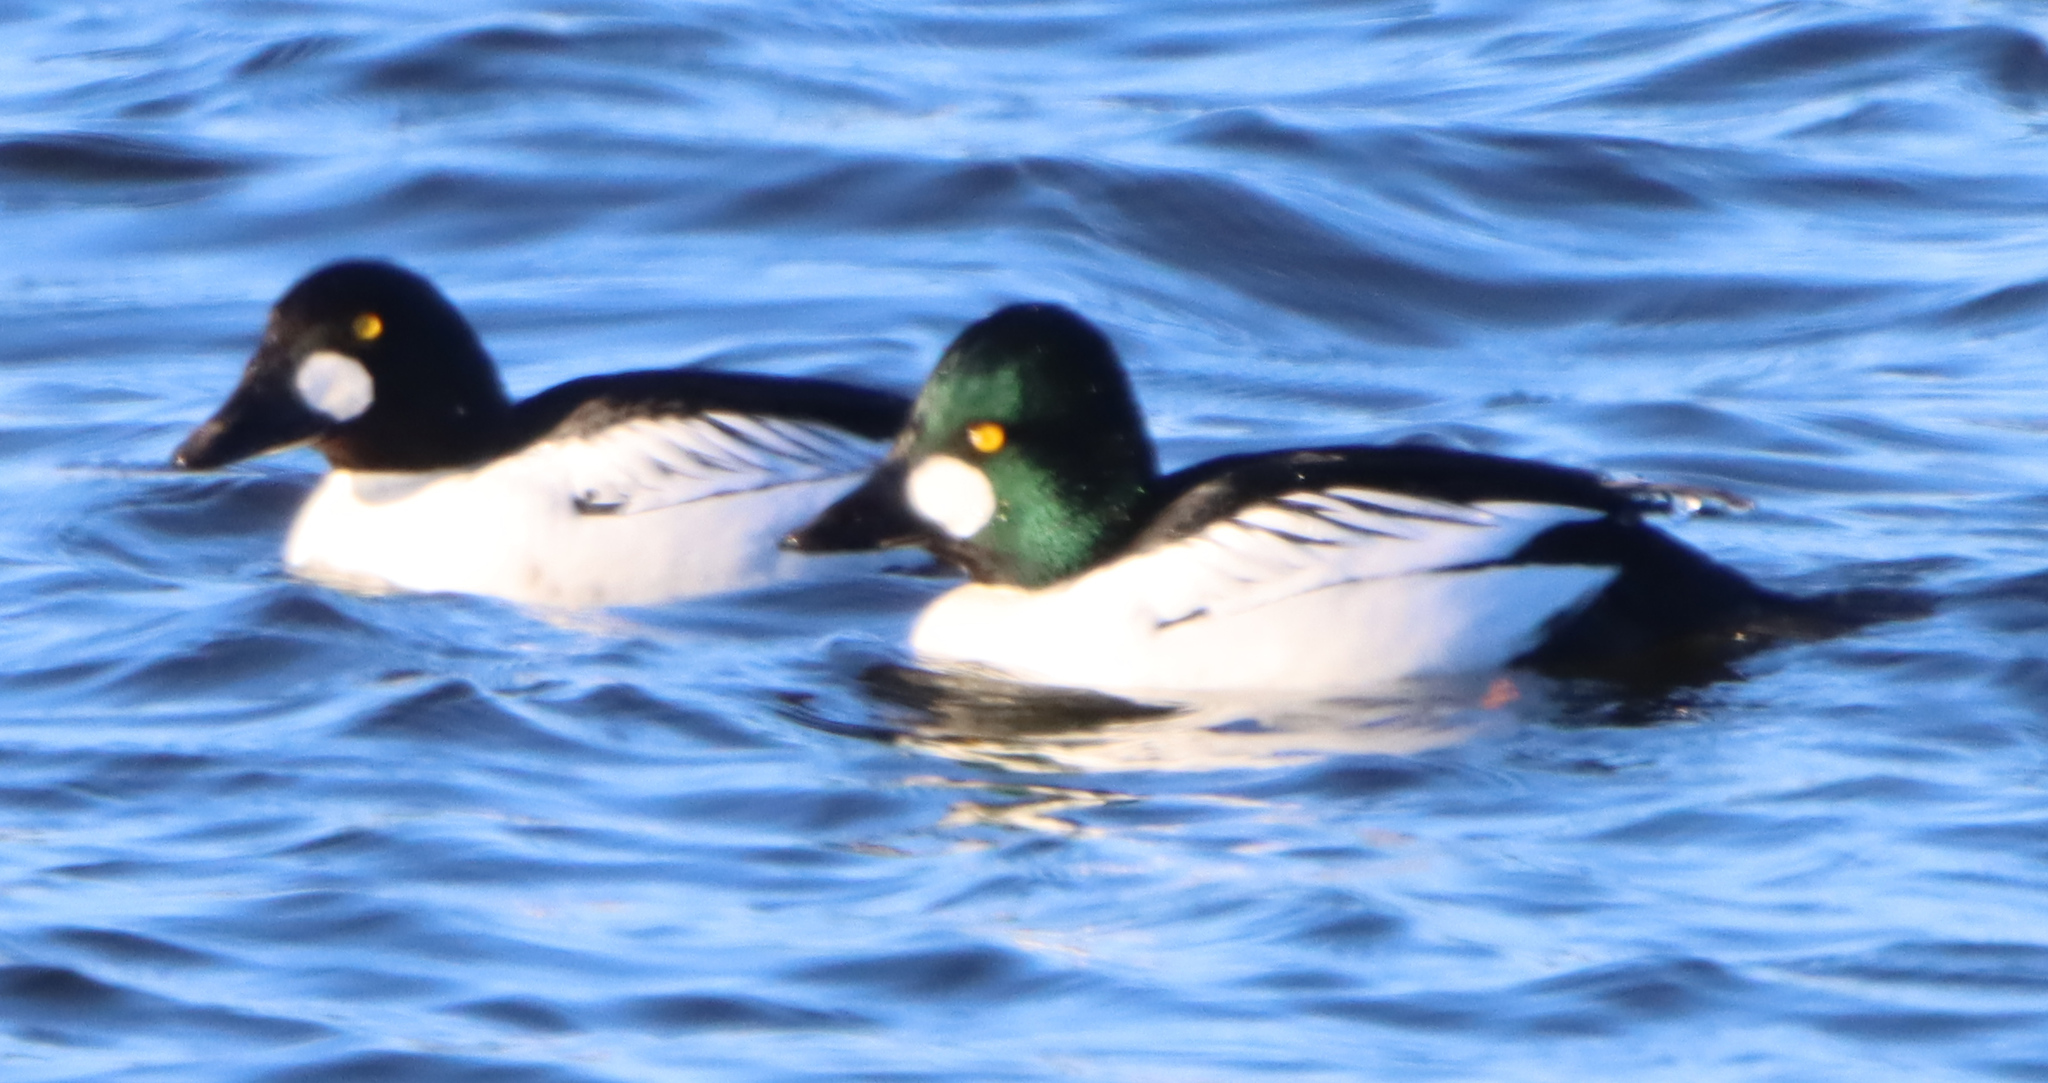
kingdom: Animalia
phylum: Chordata
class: Aves
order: Anseriformes
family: Anatidae
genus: Bucephala
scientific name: Bucephala clangula
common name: Common goldeneye
